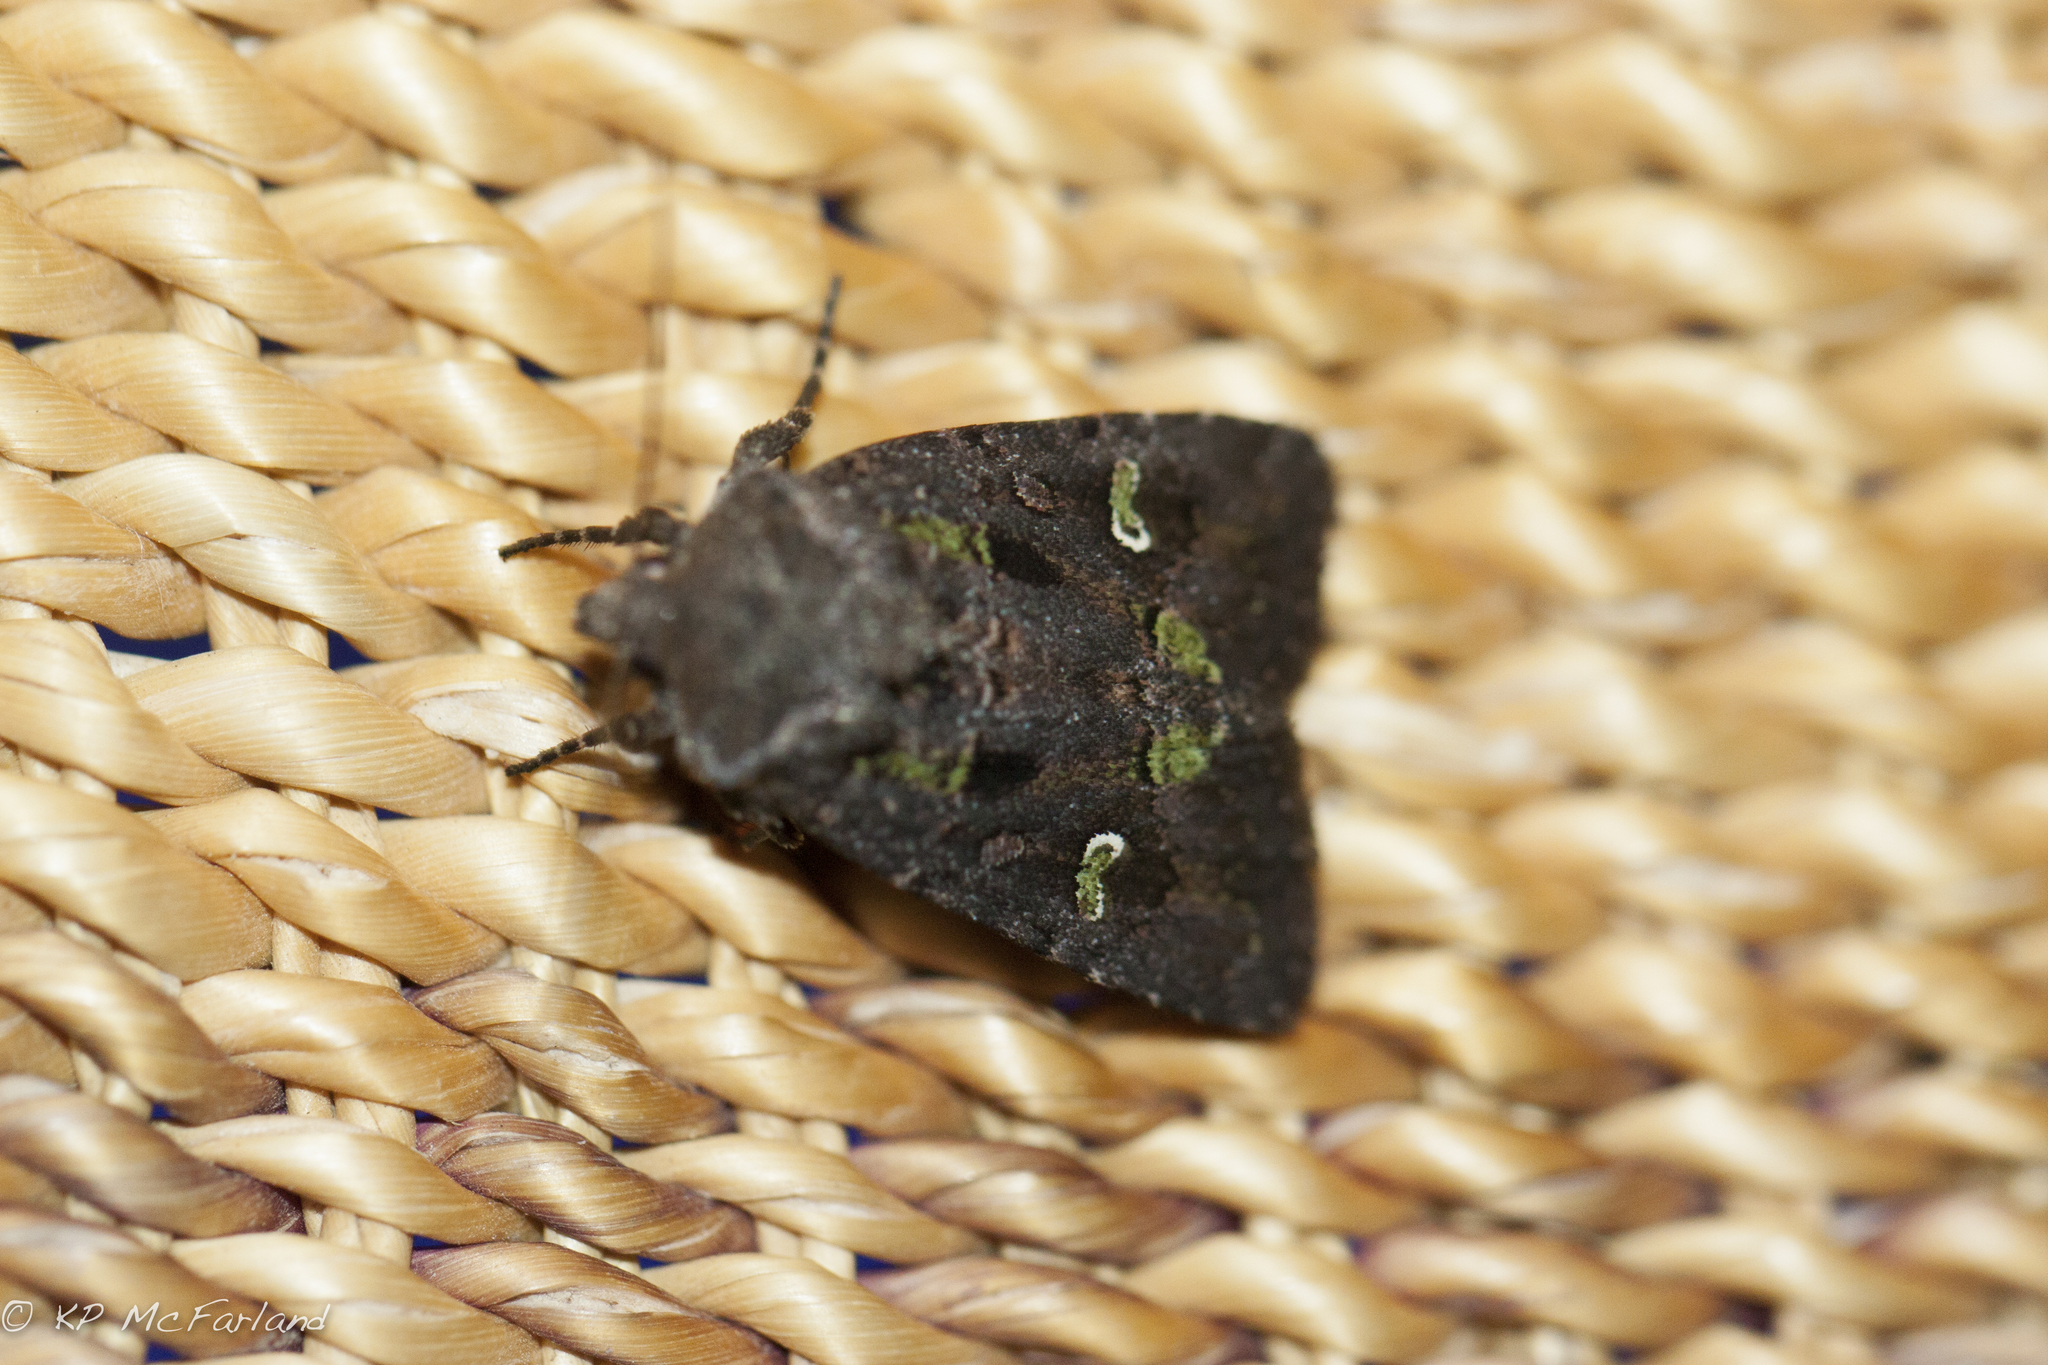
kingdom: Animalia
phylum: Arthropoda
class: Insecta
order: Lepidoptera
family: Noctuidae
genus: Lacinipolia
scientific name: Lacinipolia renigera
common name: Kidney-spotted minor
